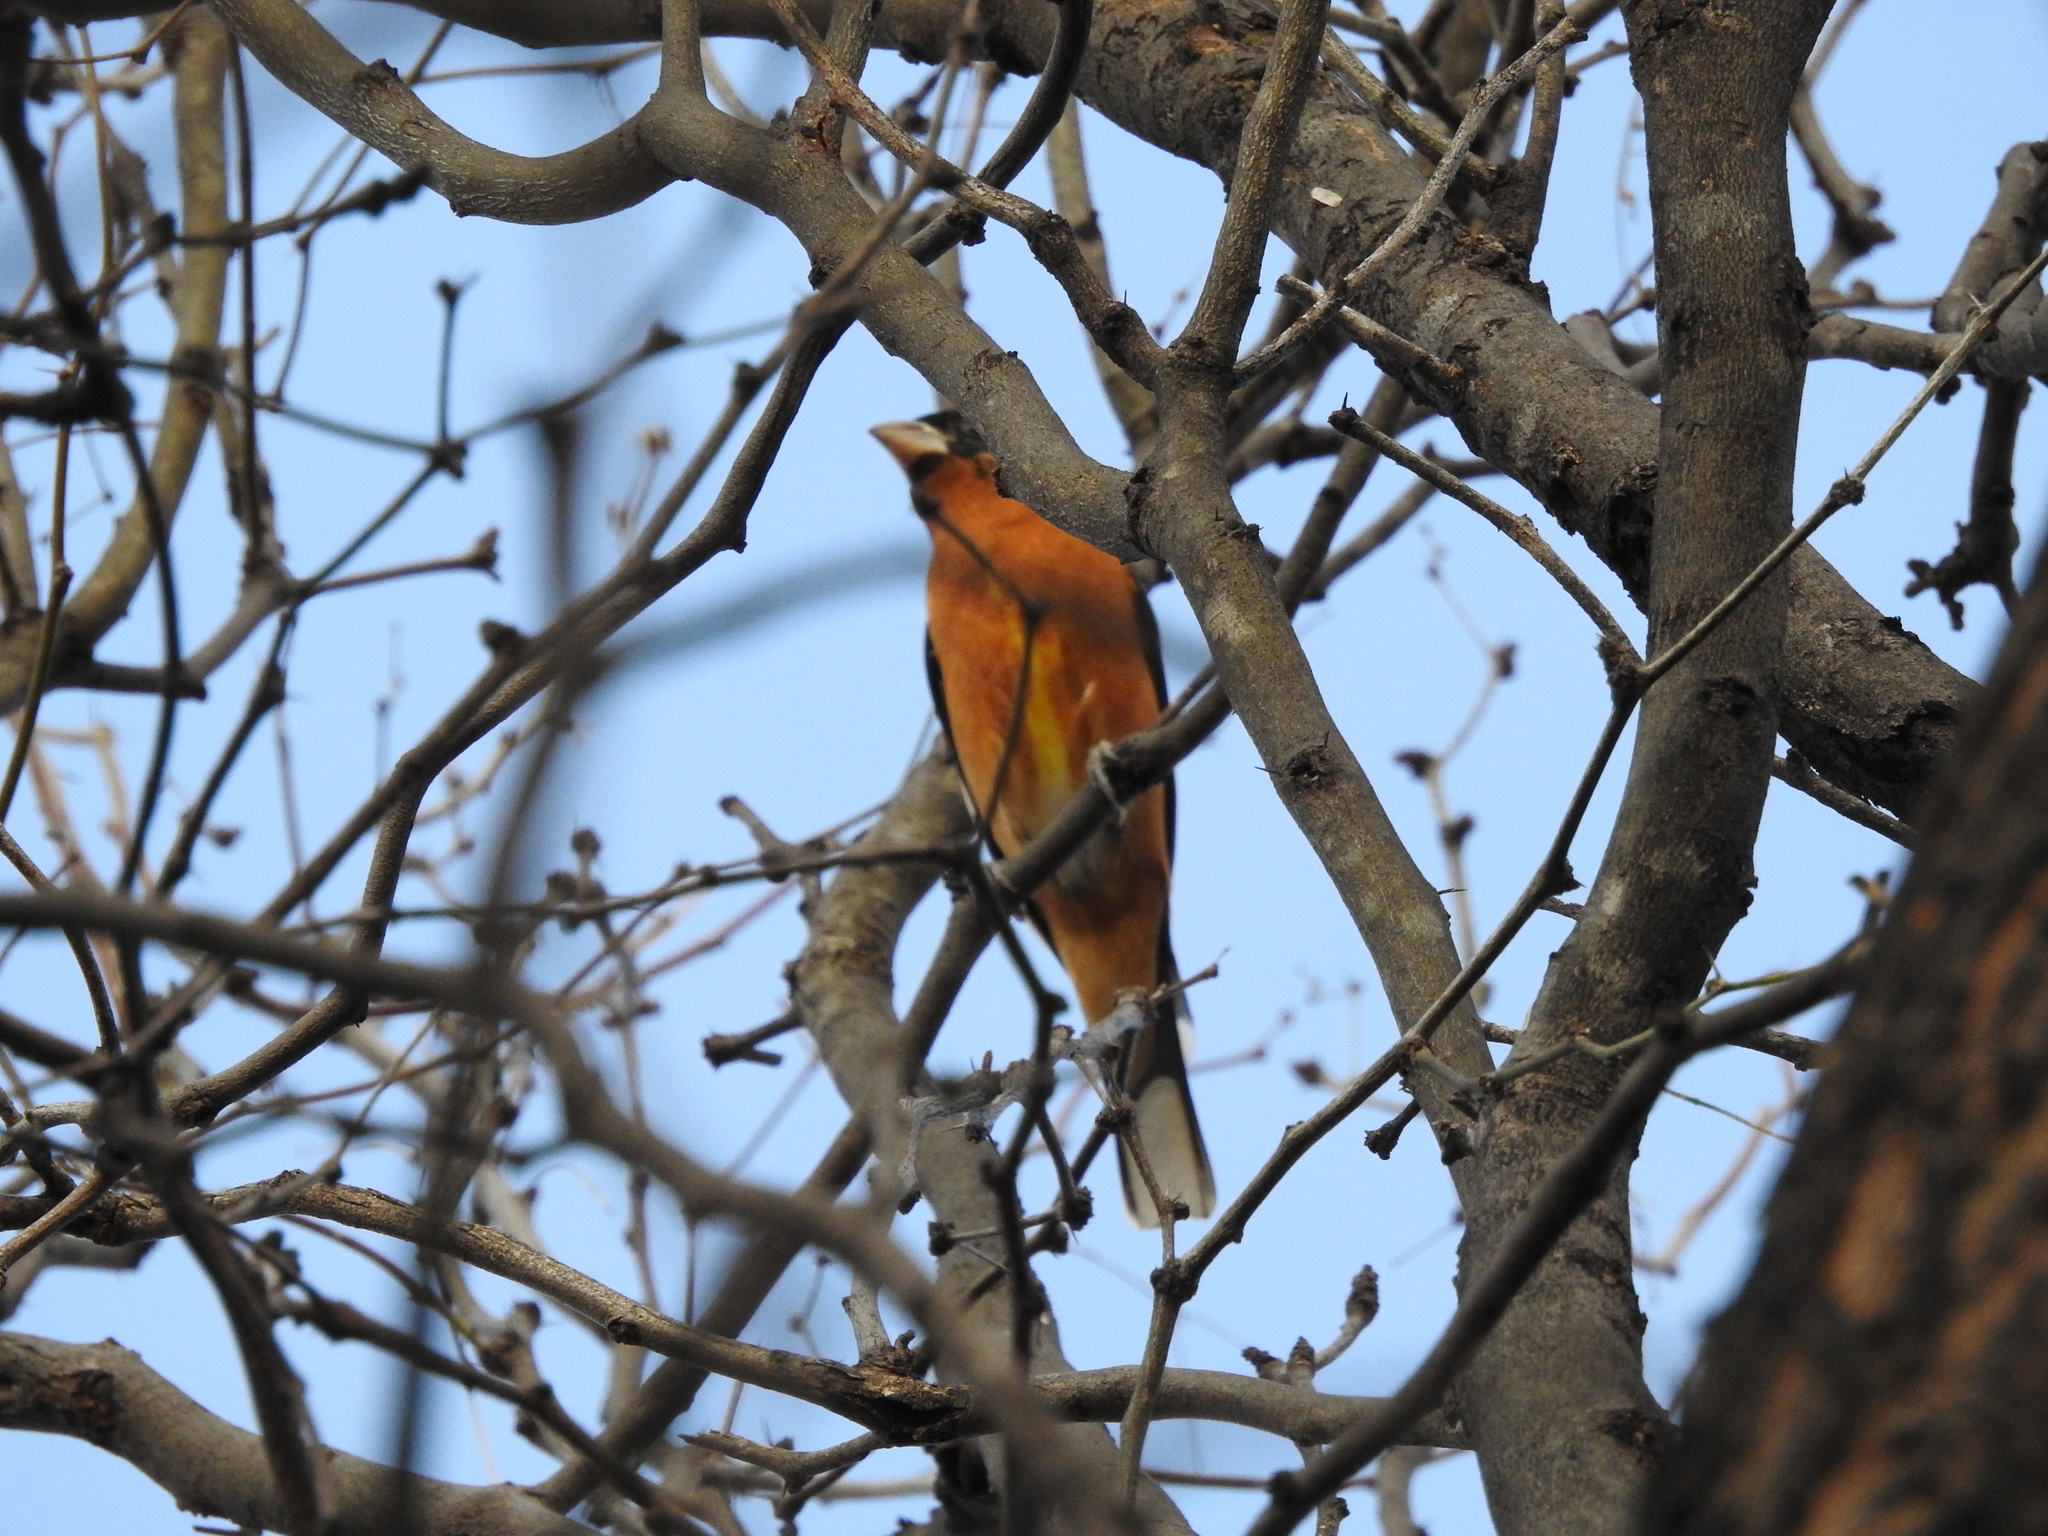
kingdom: Animalia
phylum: Chordata
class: Aves
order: Passeriformes
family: Cardinalidae
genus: Pheucticus
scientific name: Pheucticus melanocephalus
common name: Black-headed grosbeak
